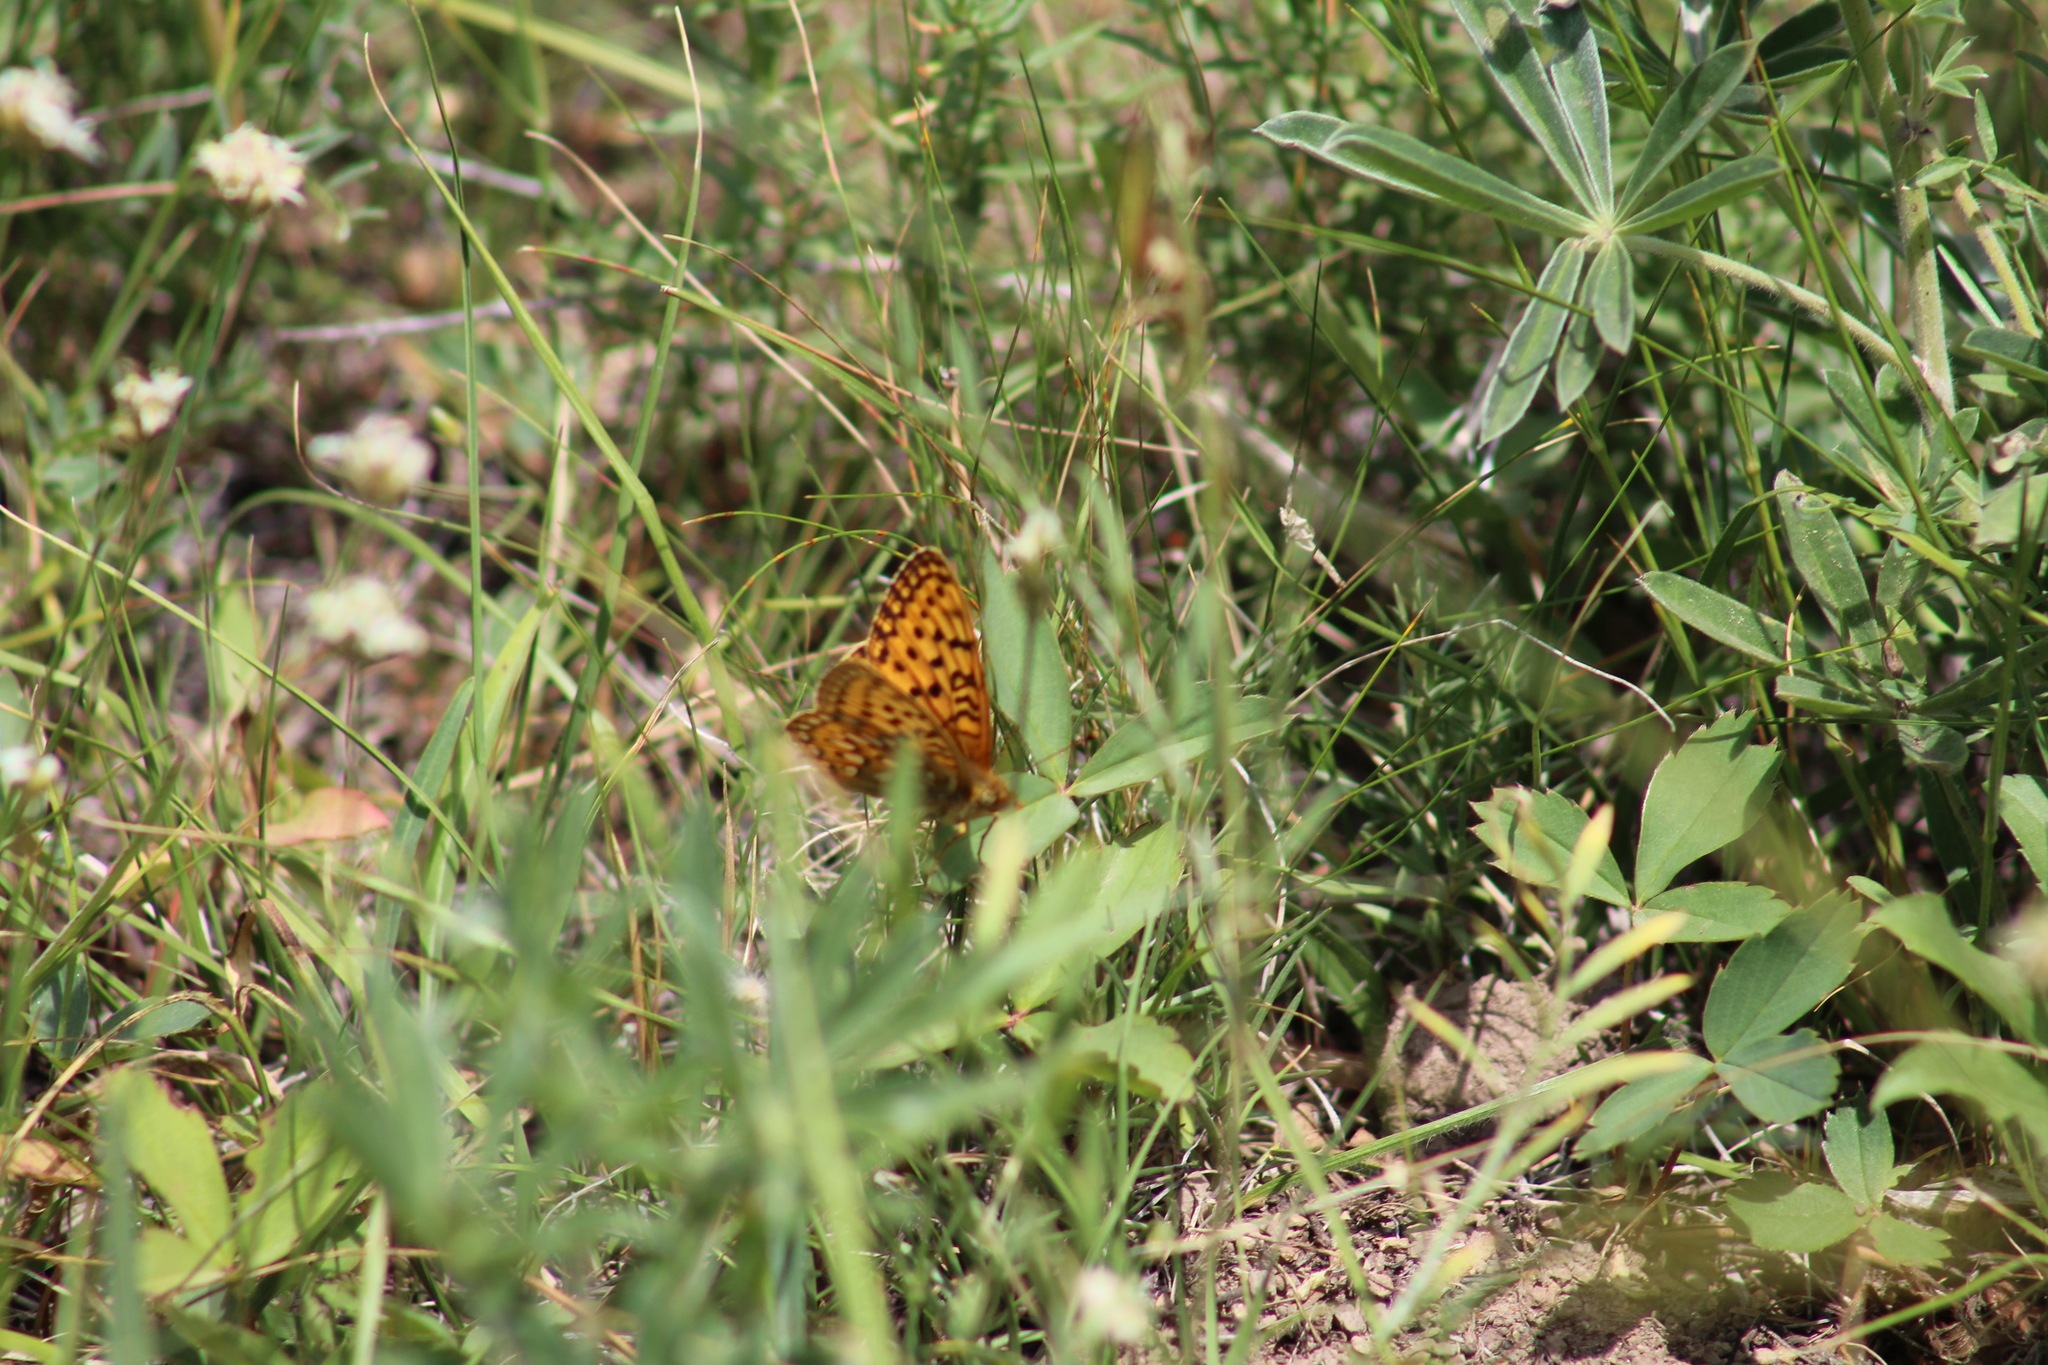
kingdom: Animalia
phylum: Arthropoda
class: Insecta
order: Lepidoptera
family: Nymphalidae
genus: Speyeria
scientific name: Speyeria zerene
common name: Zerene fritillary
